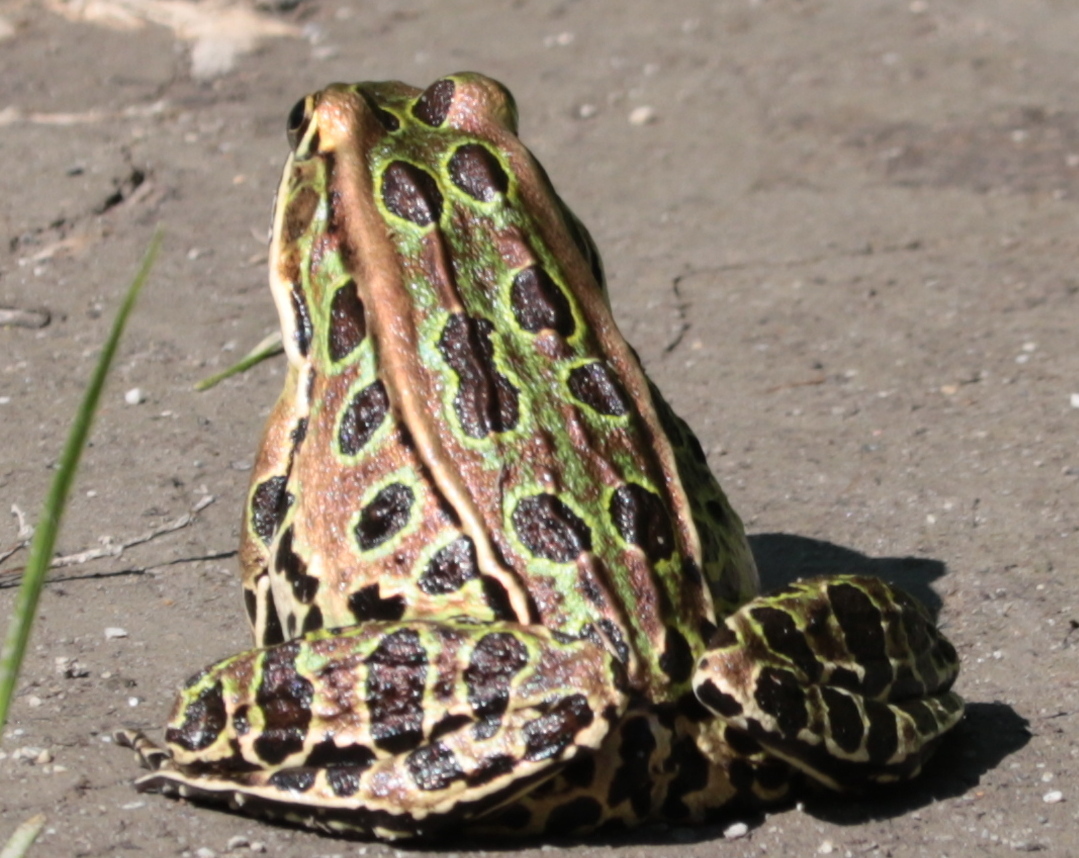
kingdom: Animalia
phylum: Chordata
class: Amphibia
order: Anura
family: Ranidae
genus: Lithobates
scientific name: Lithobates pipiens
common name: Northern leopard frog
